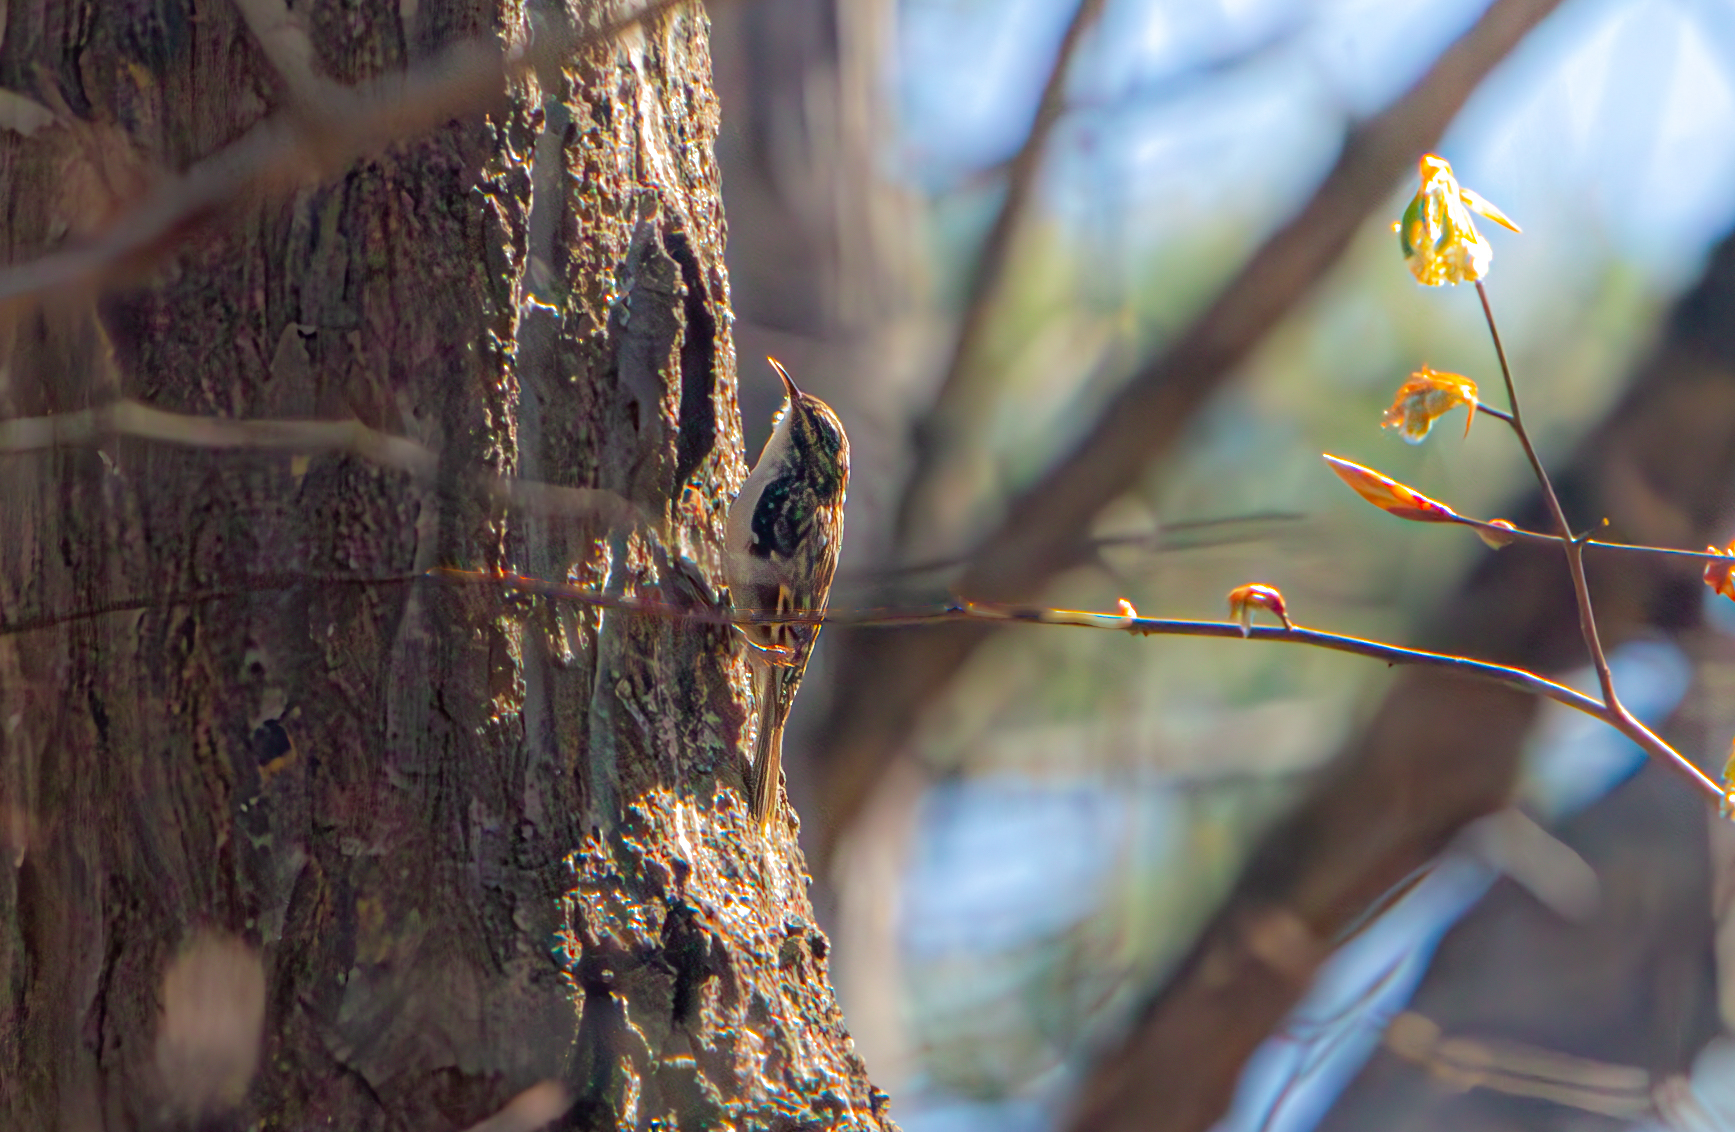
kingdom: Animalia
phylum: Chordata
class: Aves
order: Passeriformes
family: Certhiidae
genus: Certhia
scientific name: Certhia americana
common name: Brown creeper
